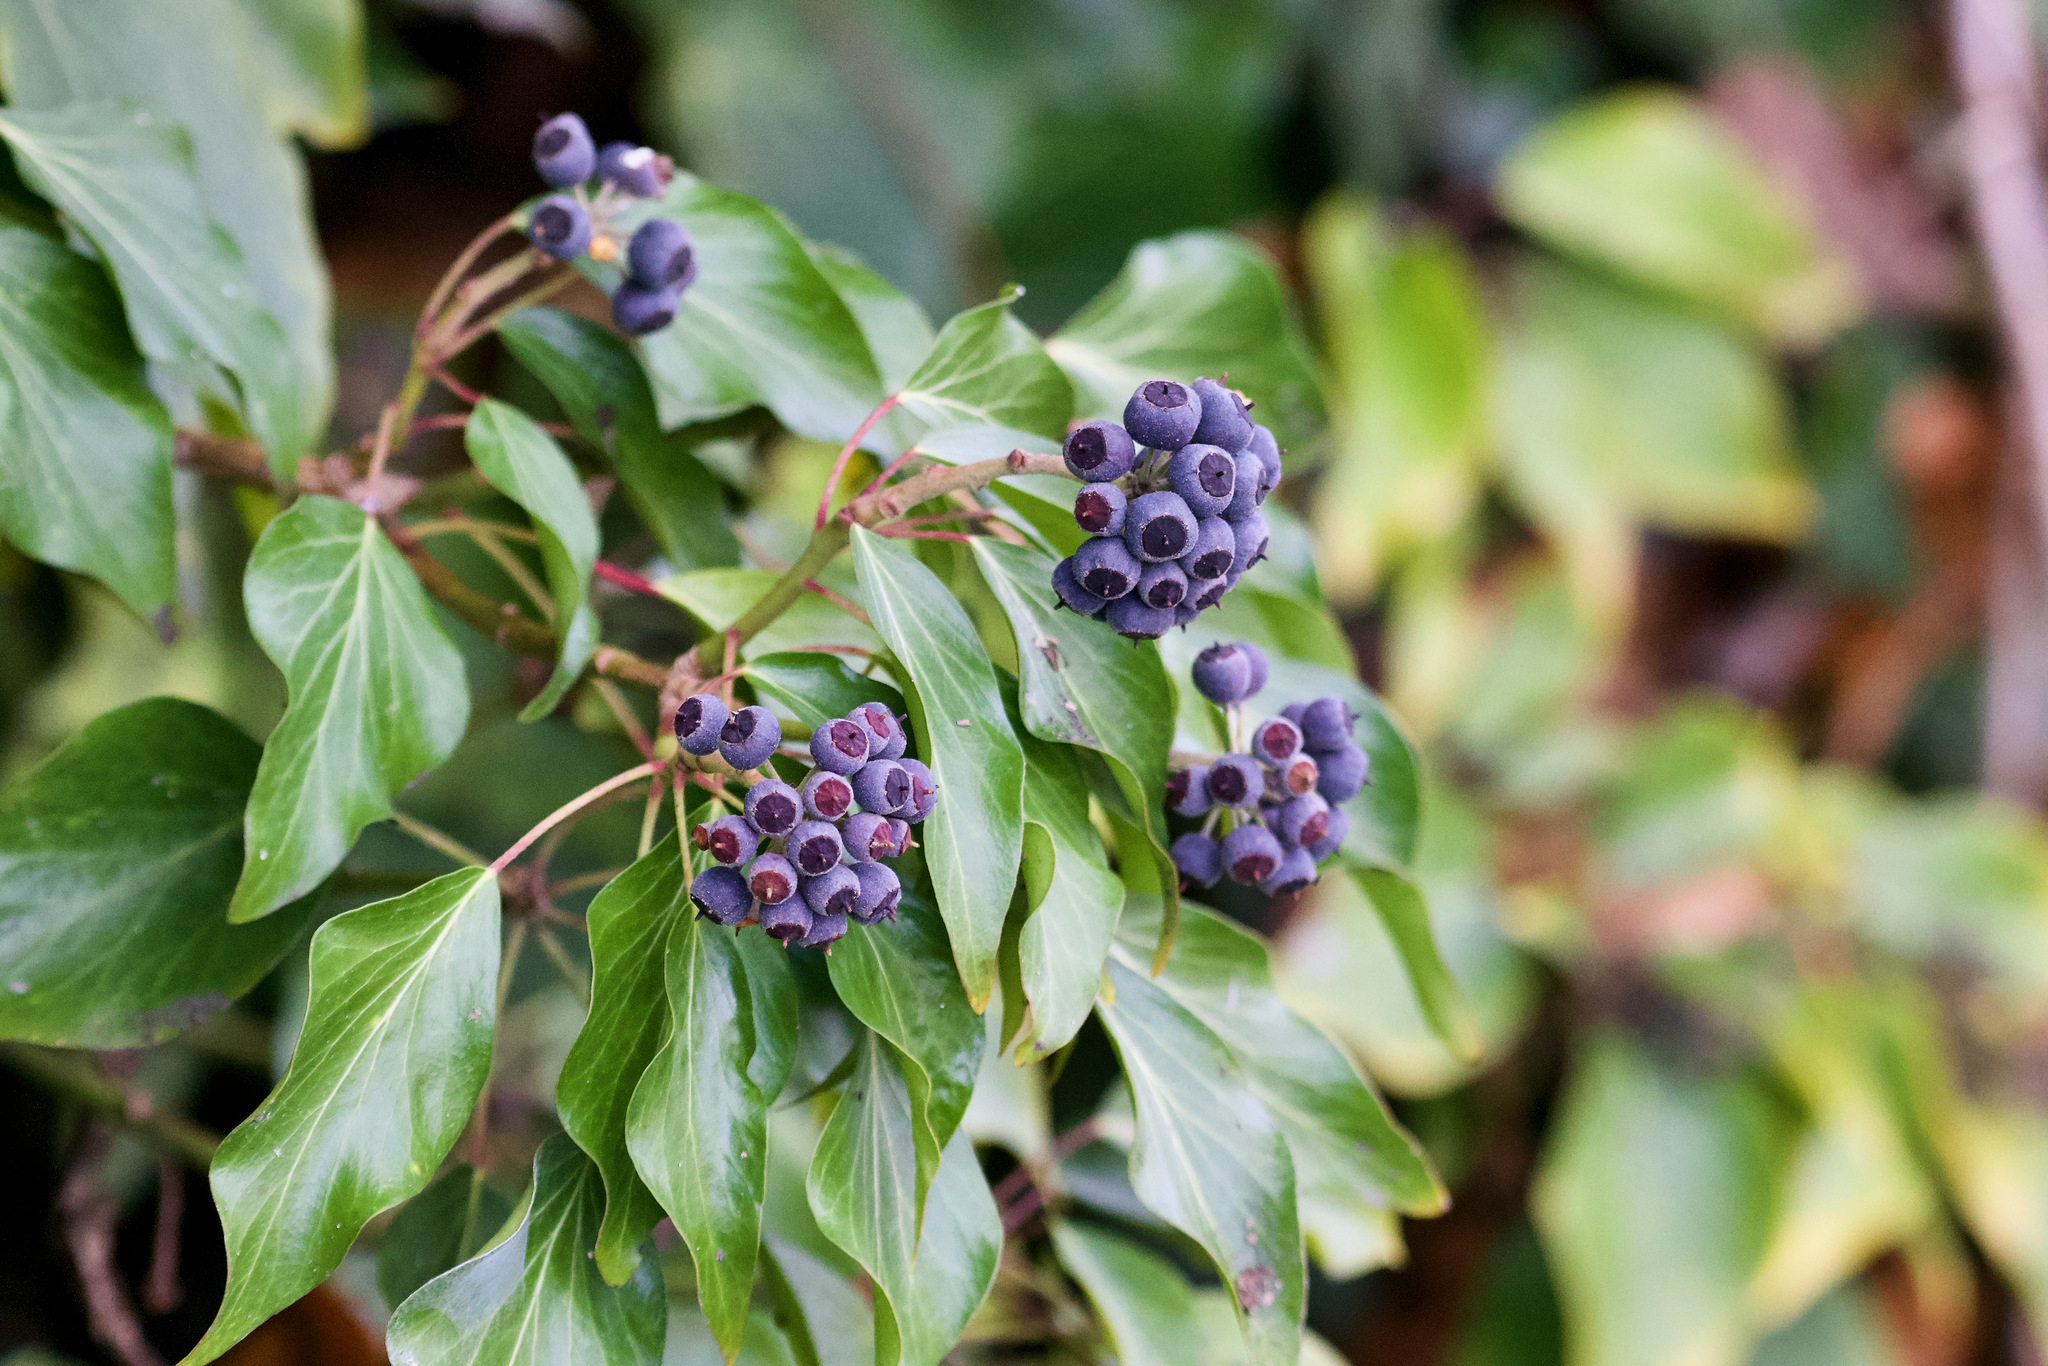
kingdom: Plantae
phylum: Tracheophyta
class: Magnoliopsida
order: Apiales
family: Araliaceae
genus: Hedera
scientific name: Hedera helix
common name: Ivy
